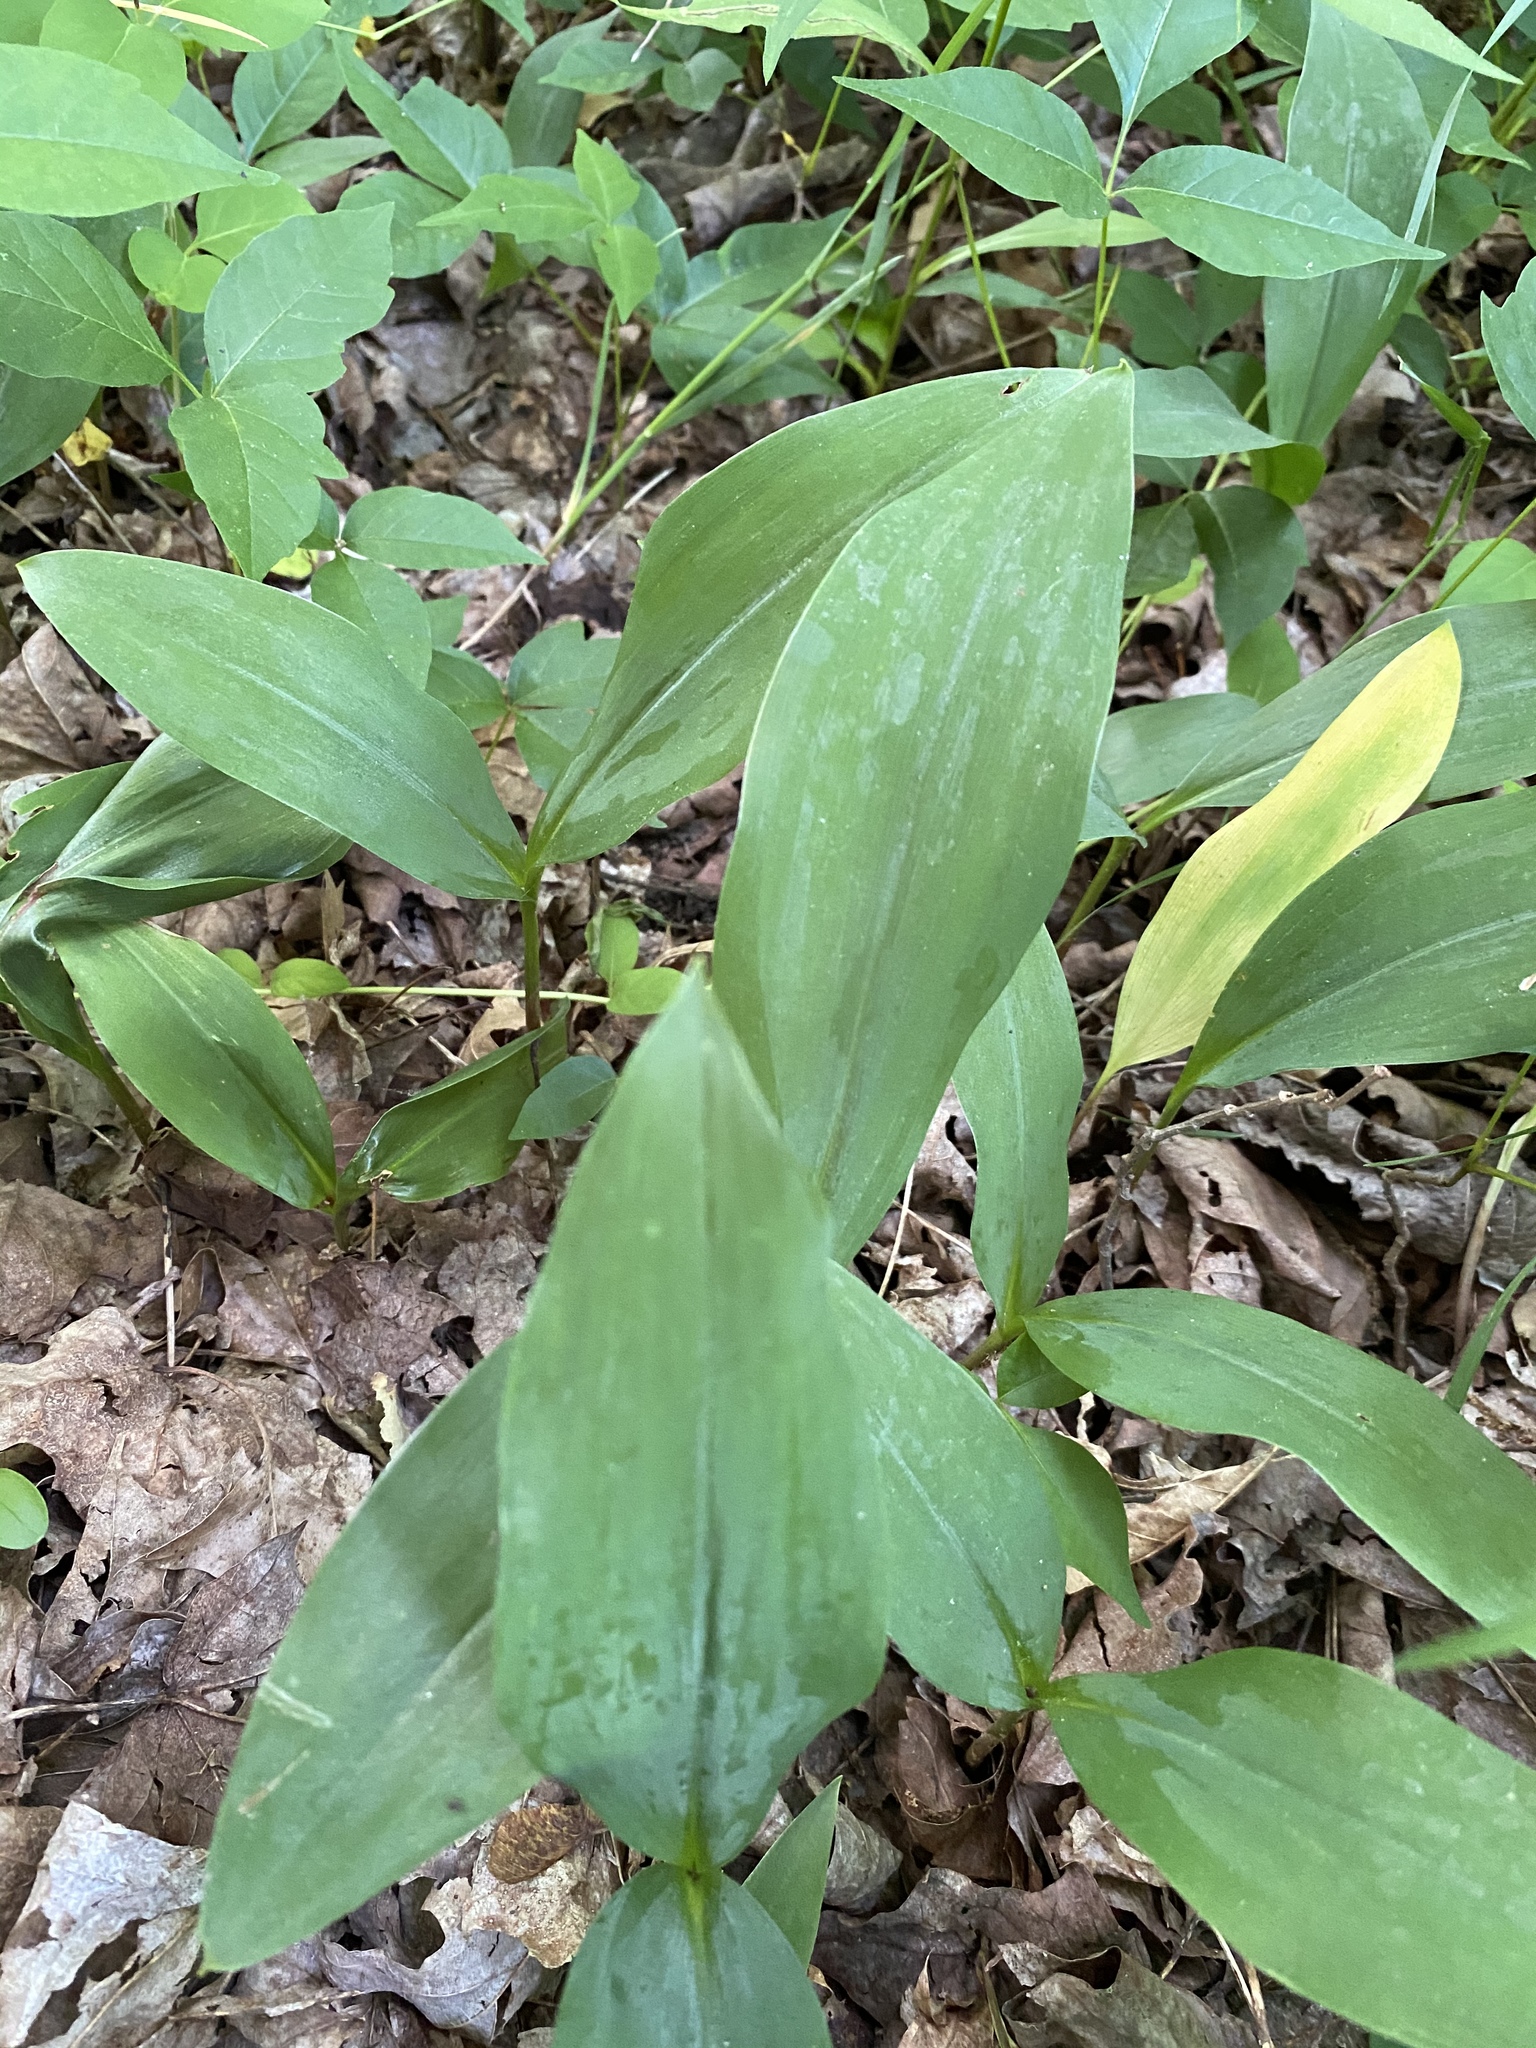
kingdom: Plantae
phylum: Tracheophyta
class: Liliopsida
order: Asparagales
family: Asparagaceae
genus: Convallaria
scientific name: Convallaria majalis
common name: Lily-of-the-valley
